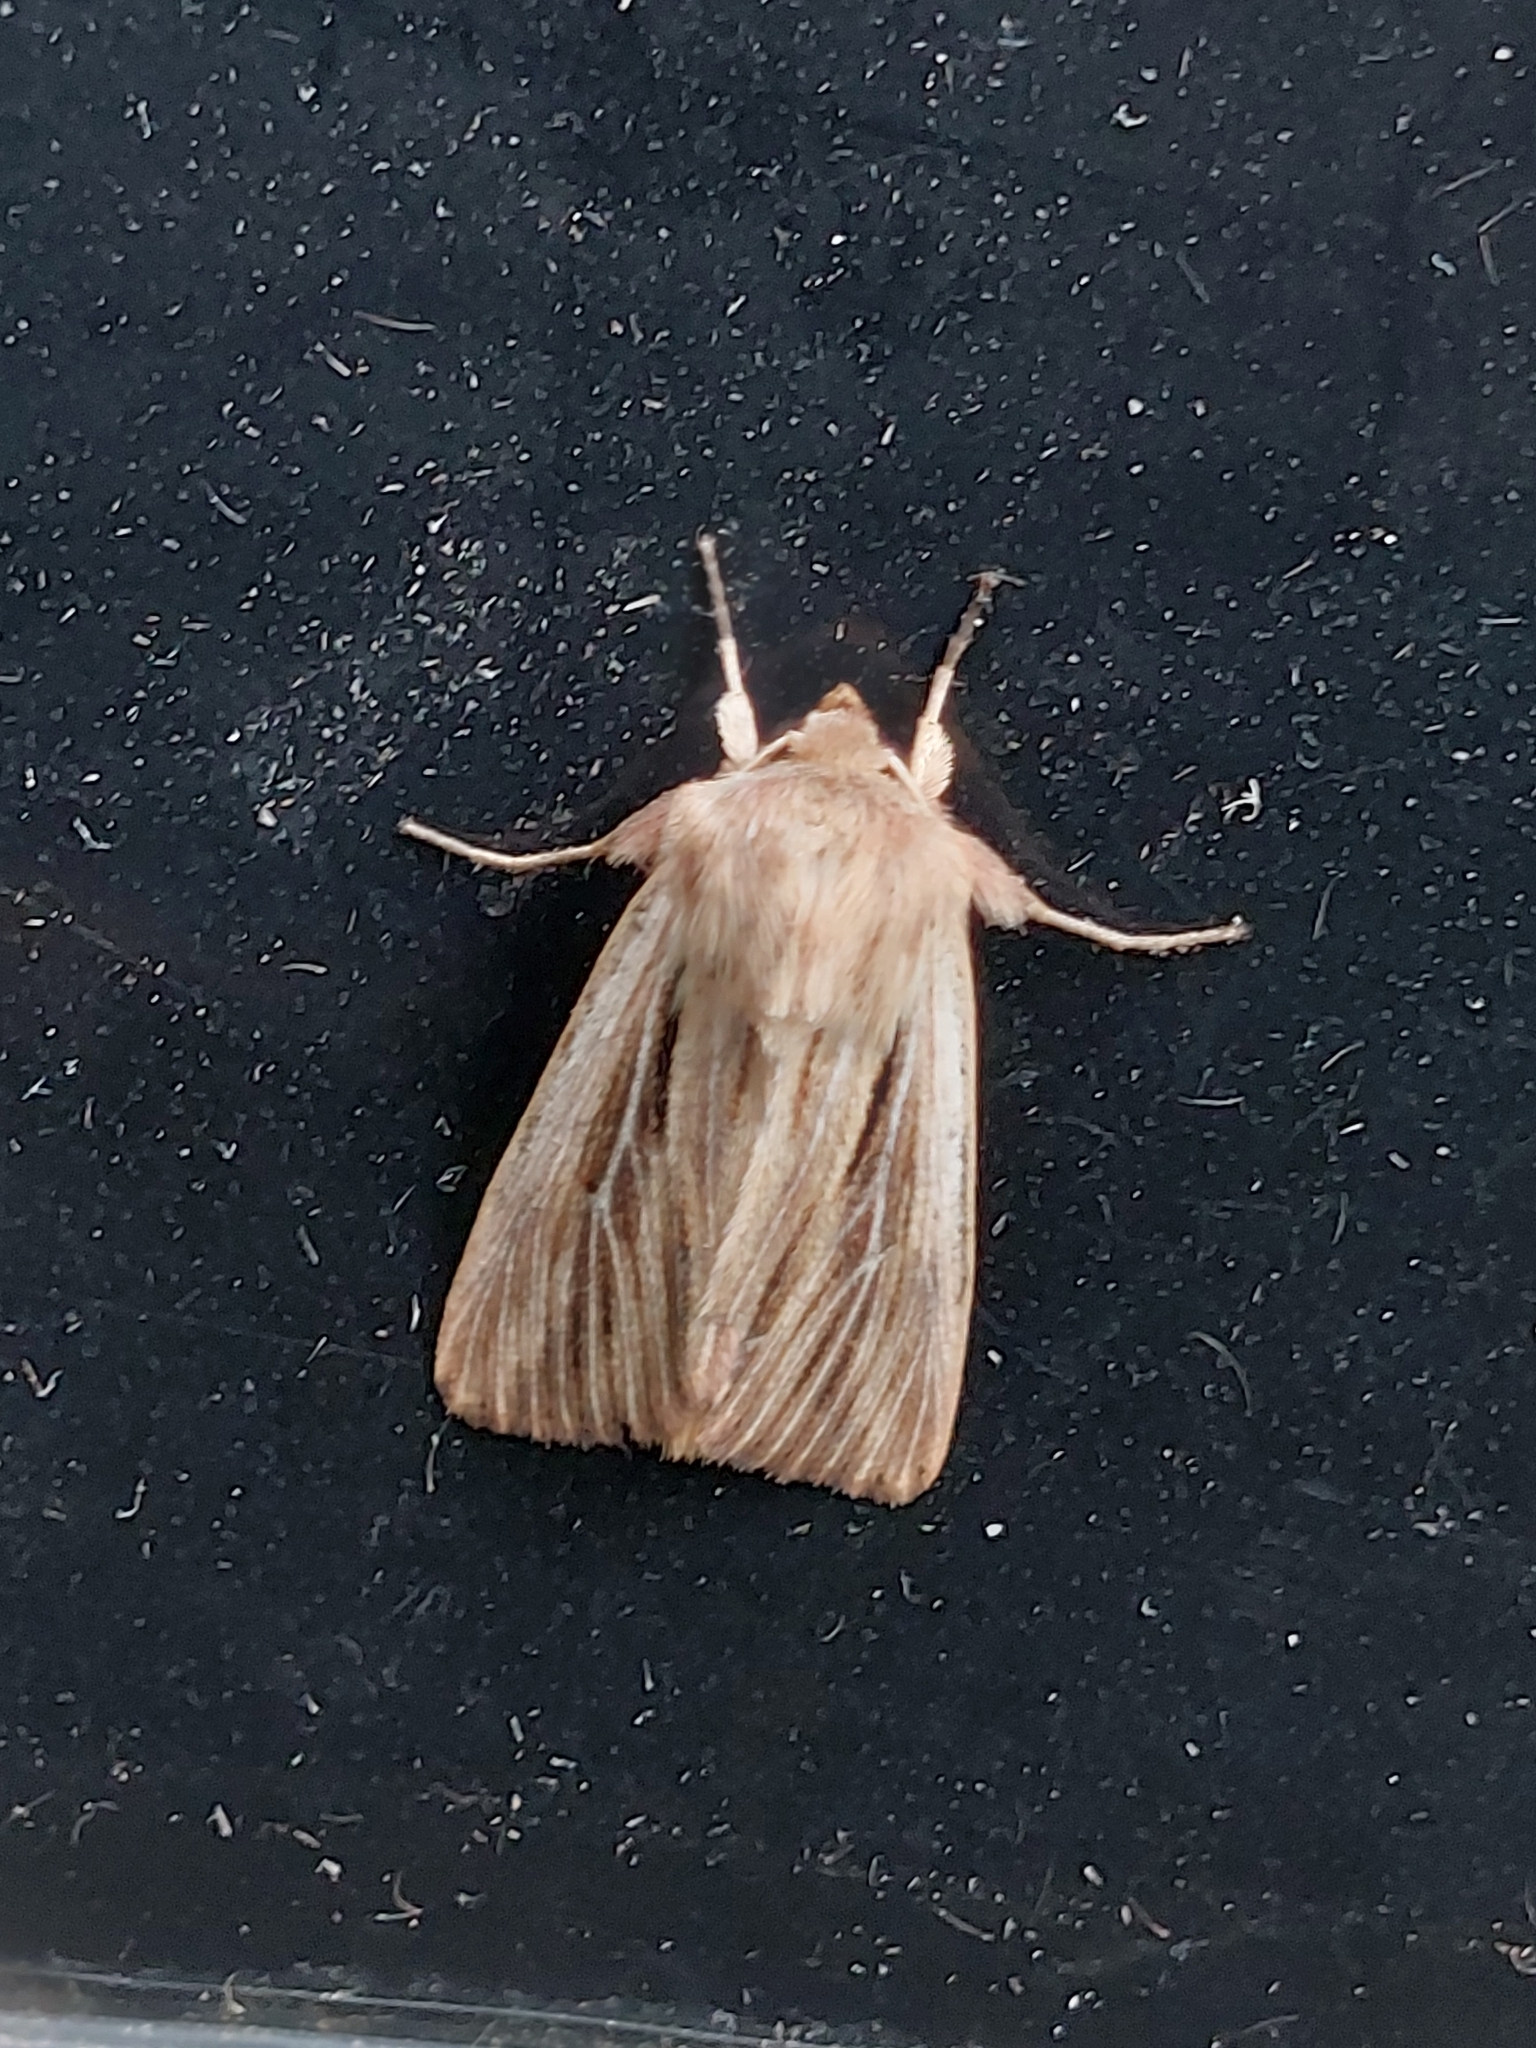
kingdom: Animalia
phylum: Arthropoda
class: Insecta
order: Lepidoptera
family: Noctuidae
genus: Leucania
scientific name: Leucania comma
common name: Shoulder-striped wainscot
